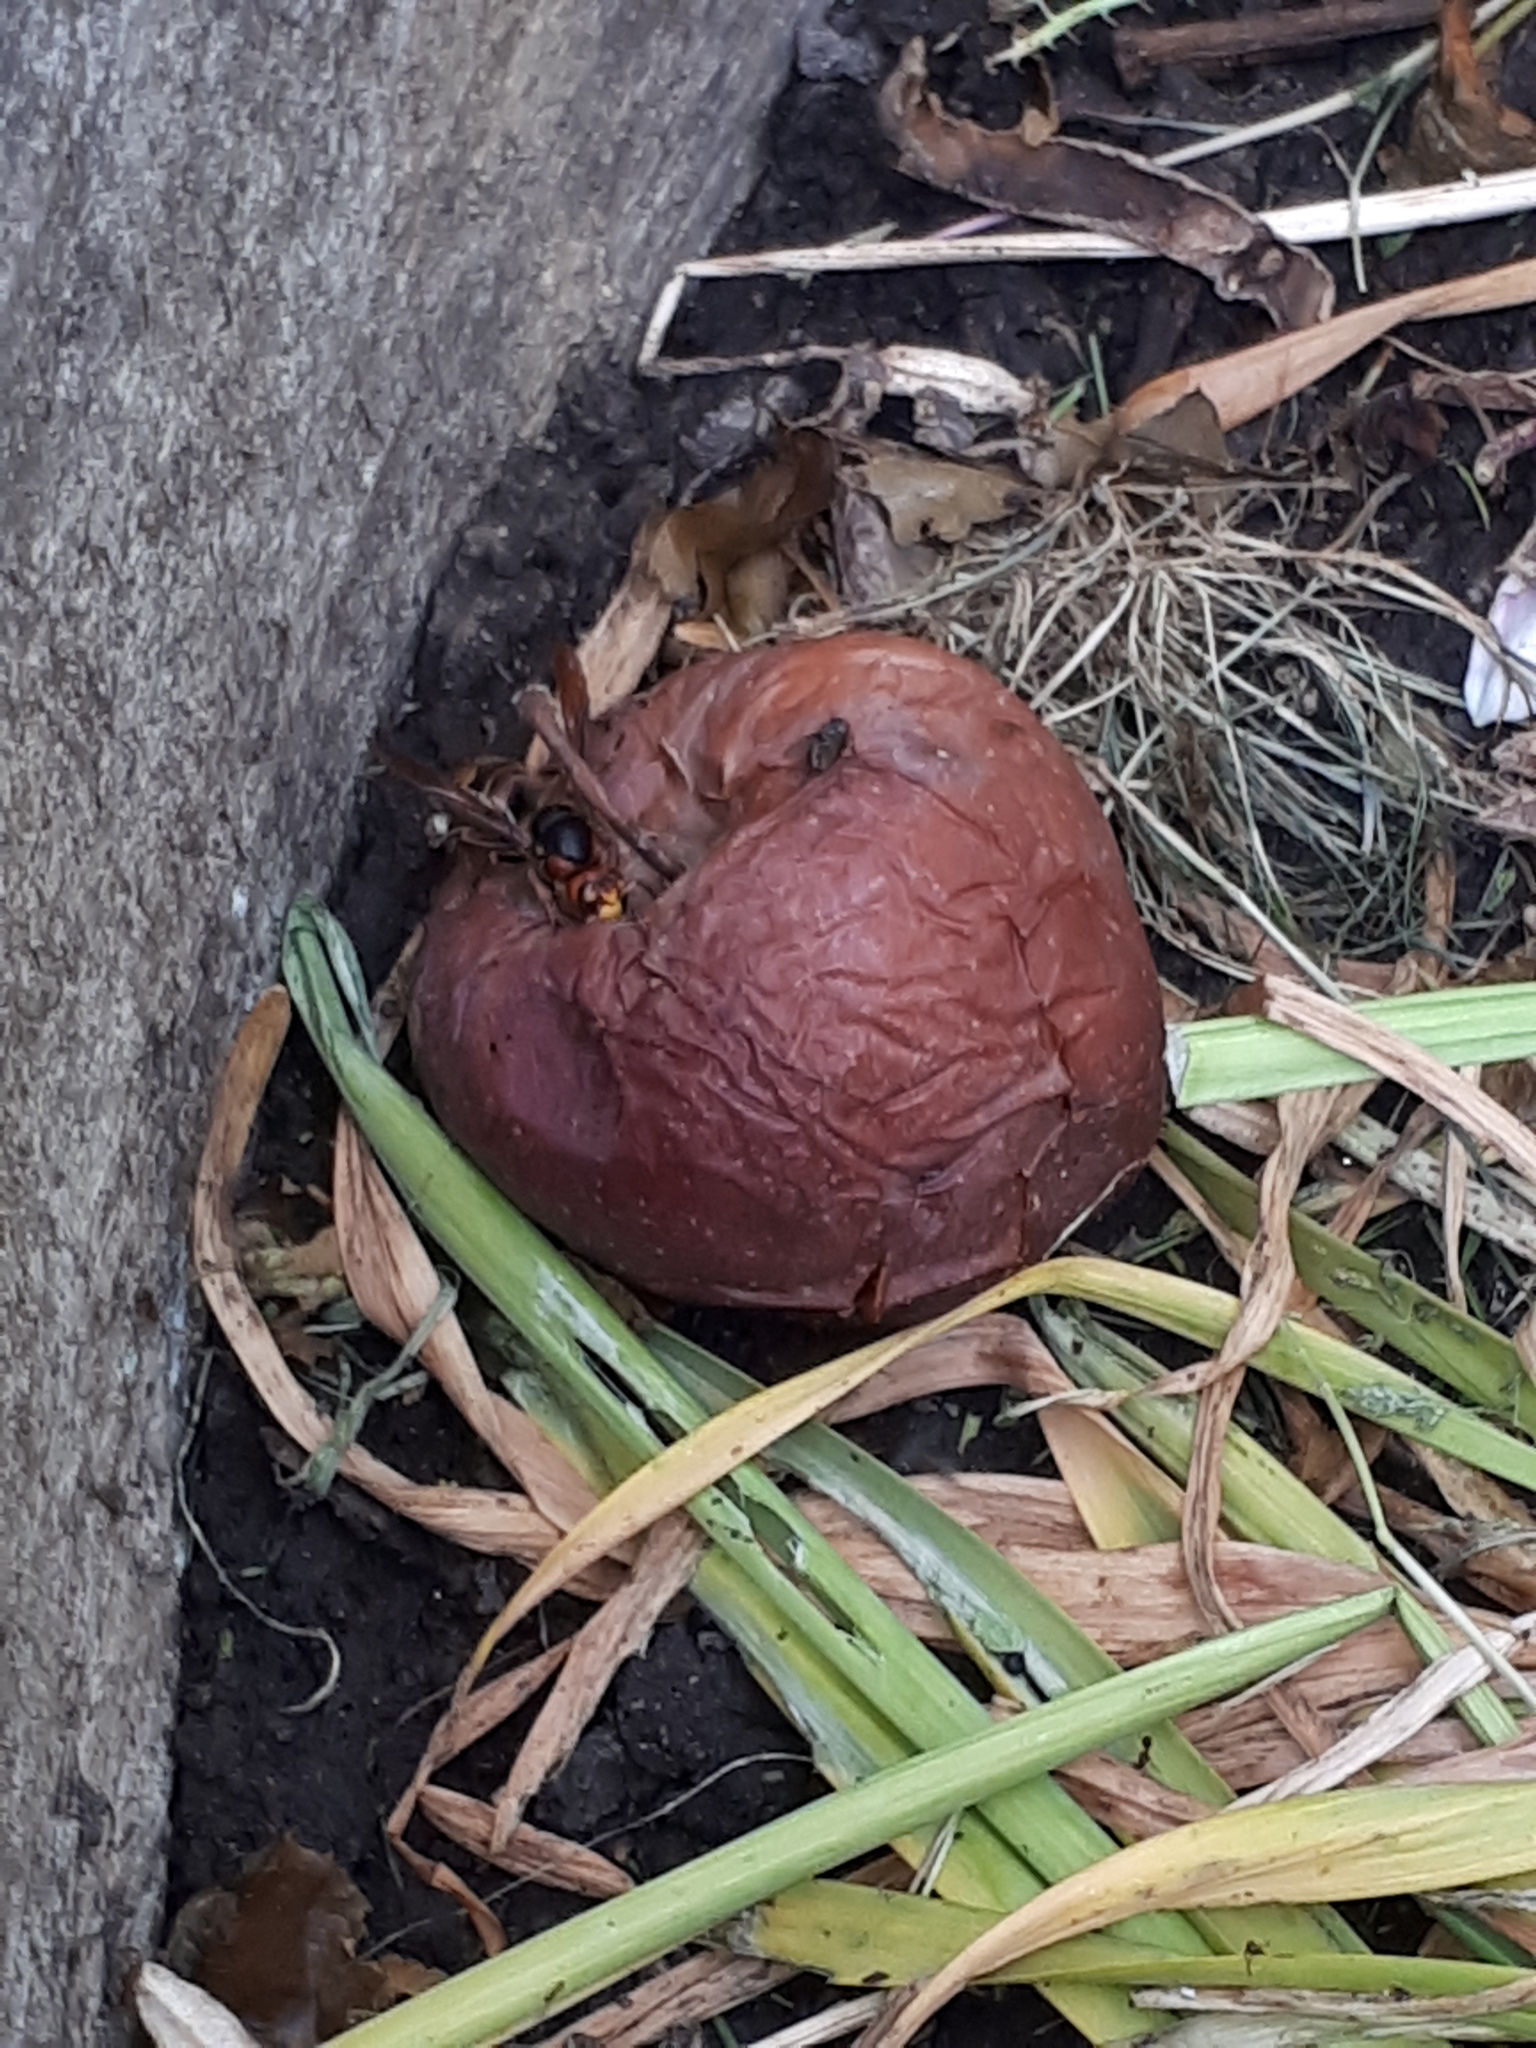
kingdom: Animalia
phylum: Arthropoda
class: Insecta
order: Hymenoptera
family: Vespidae
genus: Vespa
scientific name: Vespa crabro
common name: Hornet
